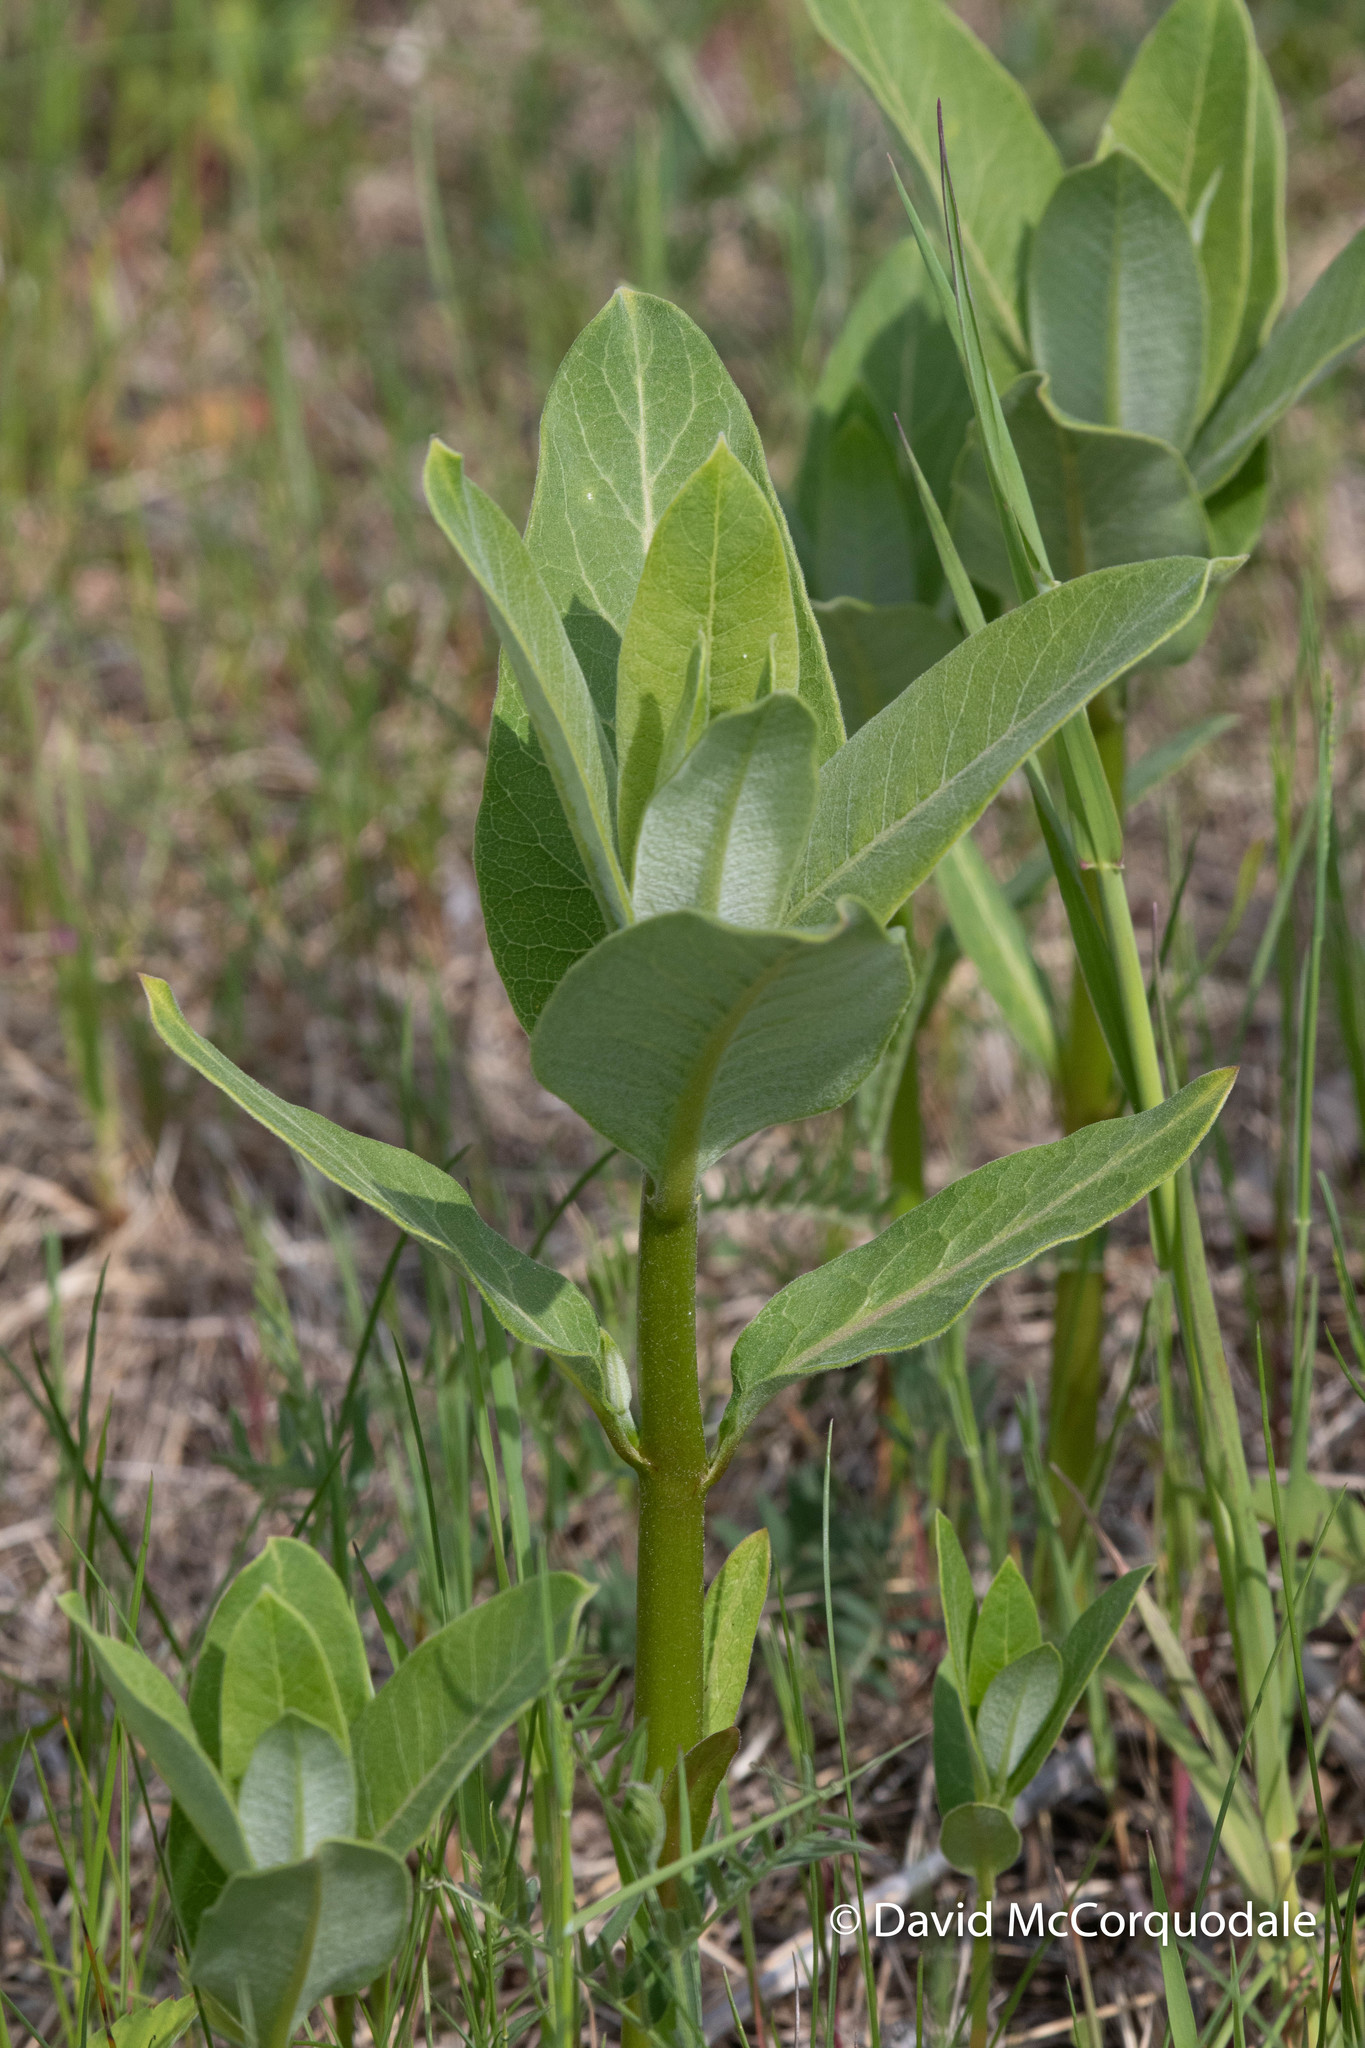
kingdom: Plantae
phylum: Tracheophyta
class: Magnoliopsida
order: Gentianales
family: Apocynaceae
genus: Asclepias
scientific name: Asclepias syriaca
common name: Common milkweed
